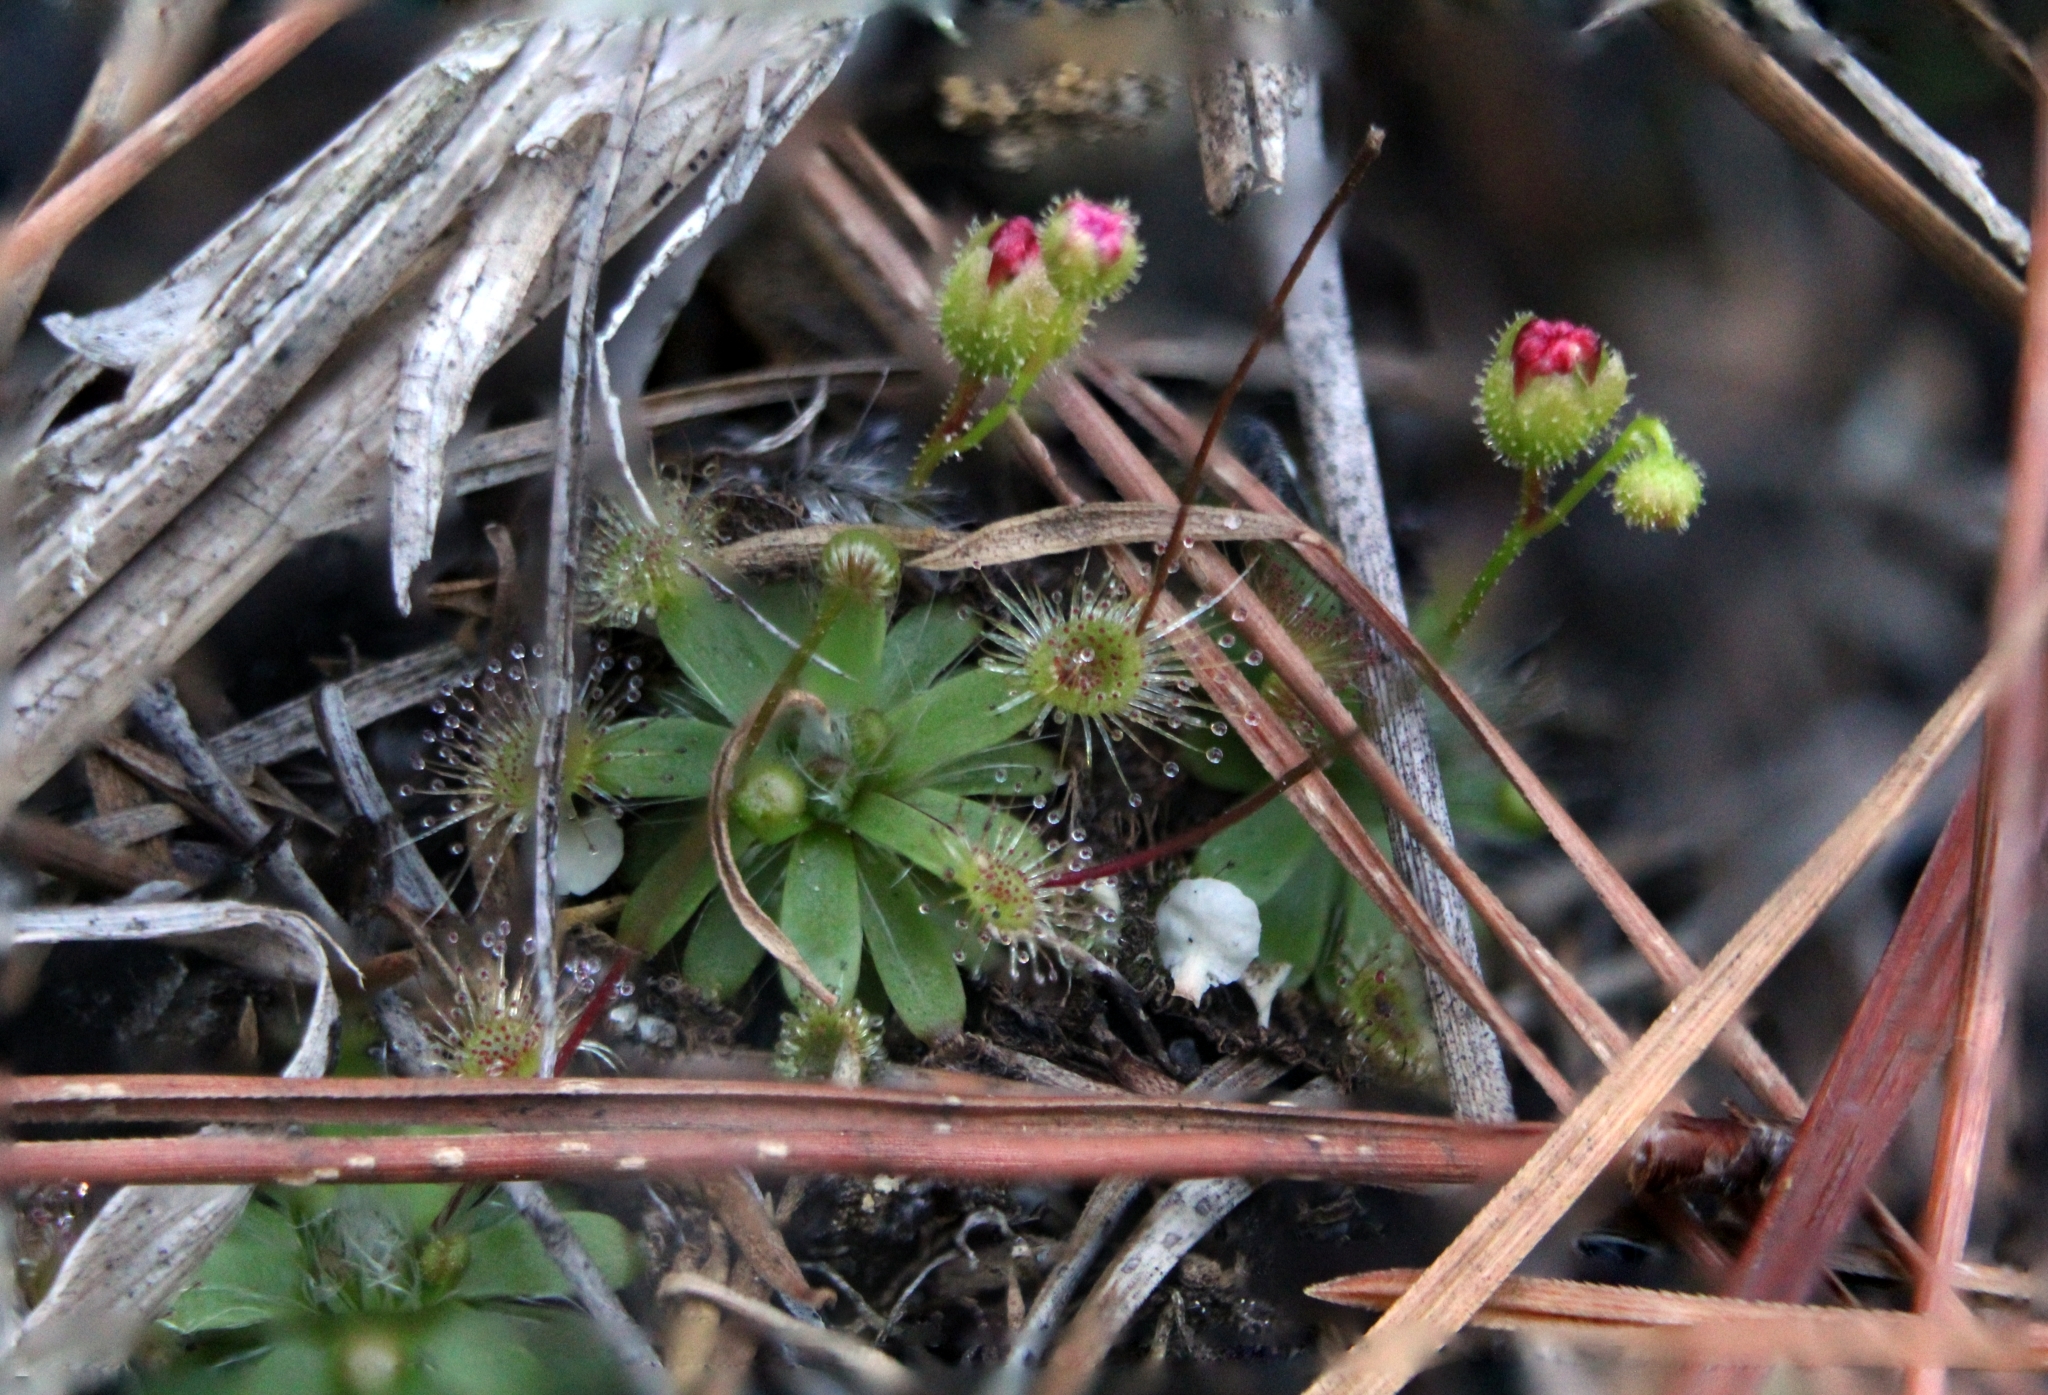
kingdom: Plantae
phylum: Tracheophyta
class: Magnoliopsida
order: Caryophyllales
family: Droseraceae
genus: Drosera
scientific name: Drosera pulchella
